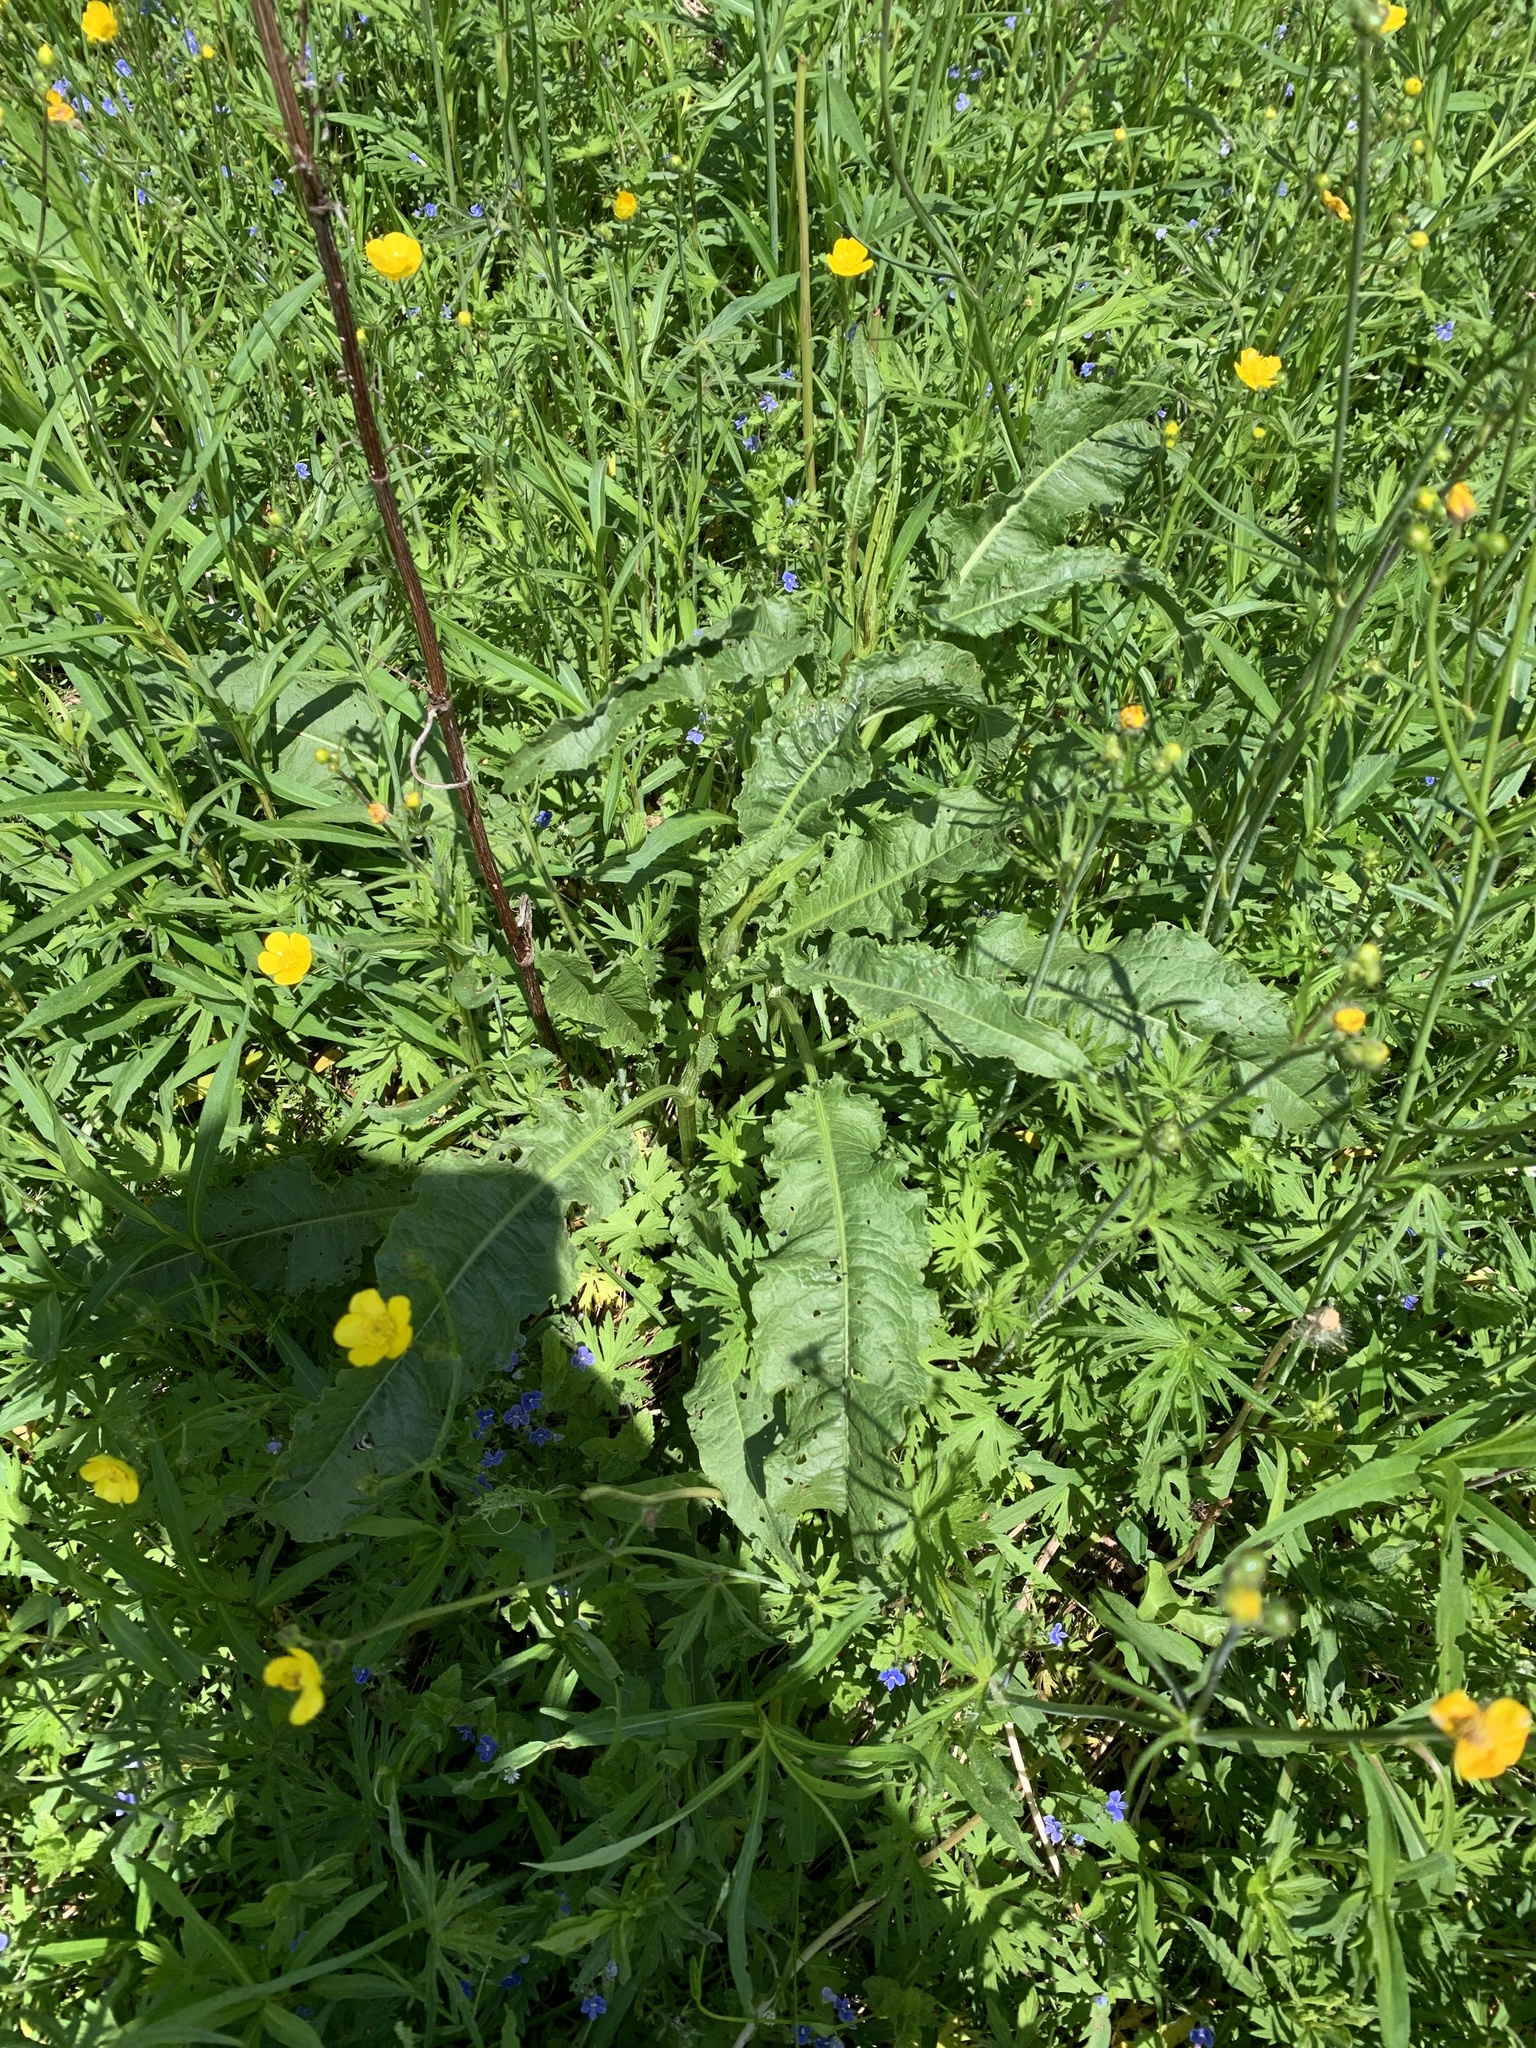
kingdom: Plantae
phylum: Tracheophyta
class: Magnoliopsida
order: Caryophyllales
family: Polygonaceae
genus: Rumex
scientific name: Rumex crispus
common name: Curled dock
